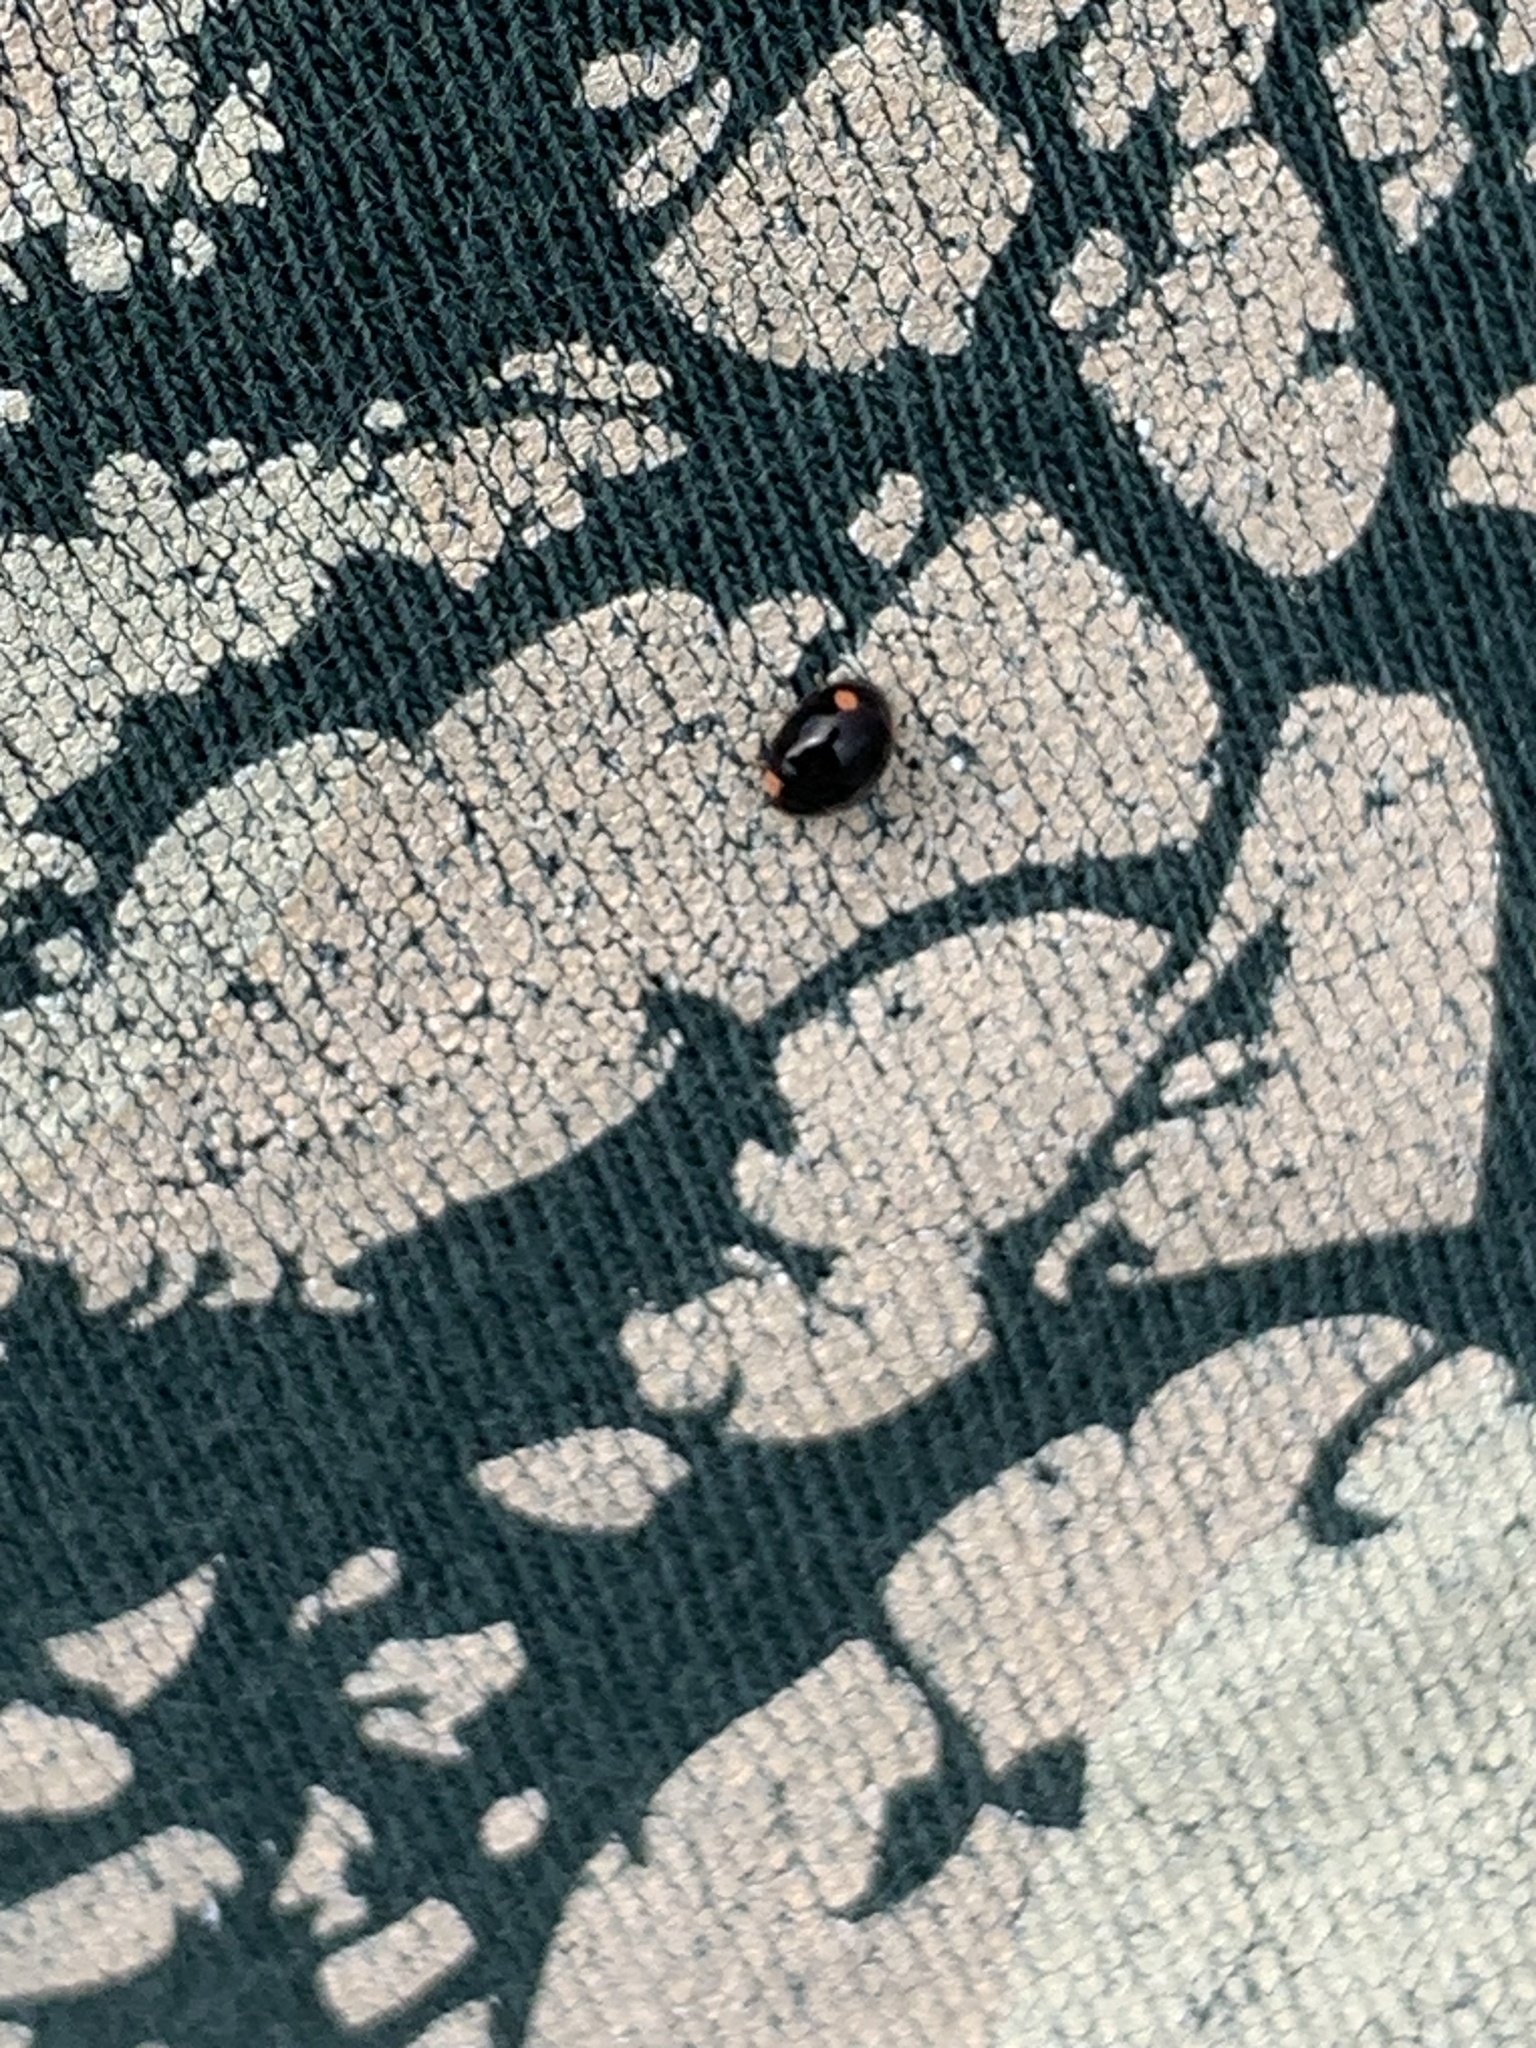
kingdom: Animalia
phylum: Arthropoda
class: Insecta
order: Coleoptera
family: Coccinellidae
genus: Hyperaspis
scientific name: Hyperaspis bigeminata
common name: Bigeminate sigil lady beetle
